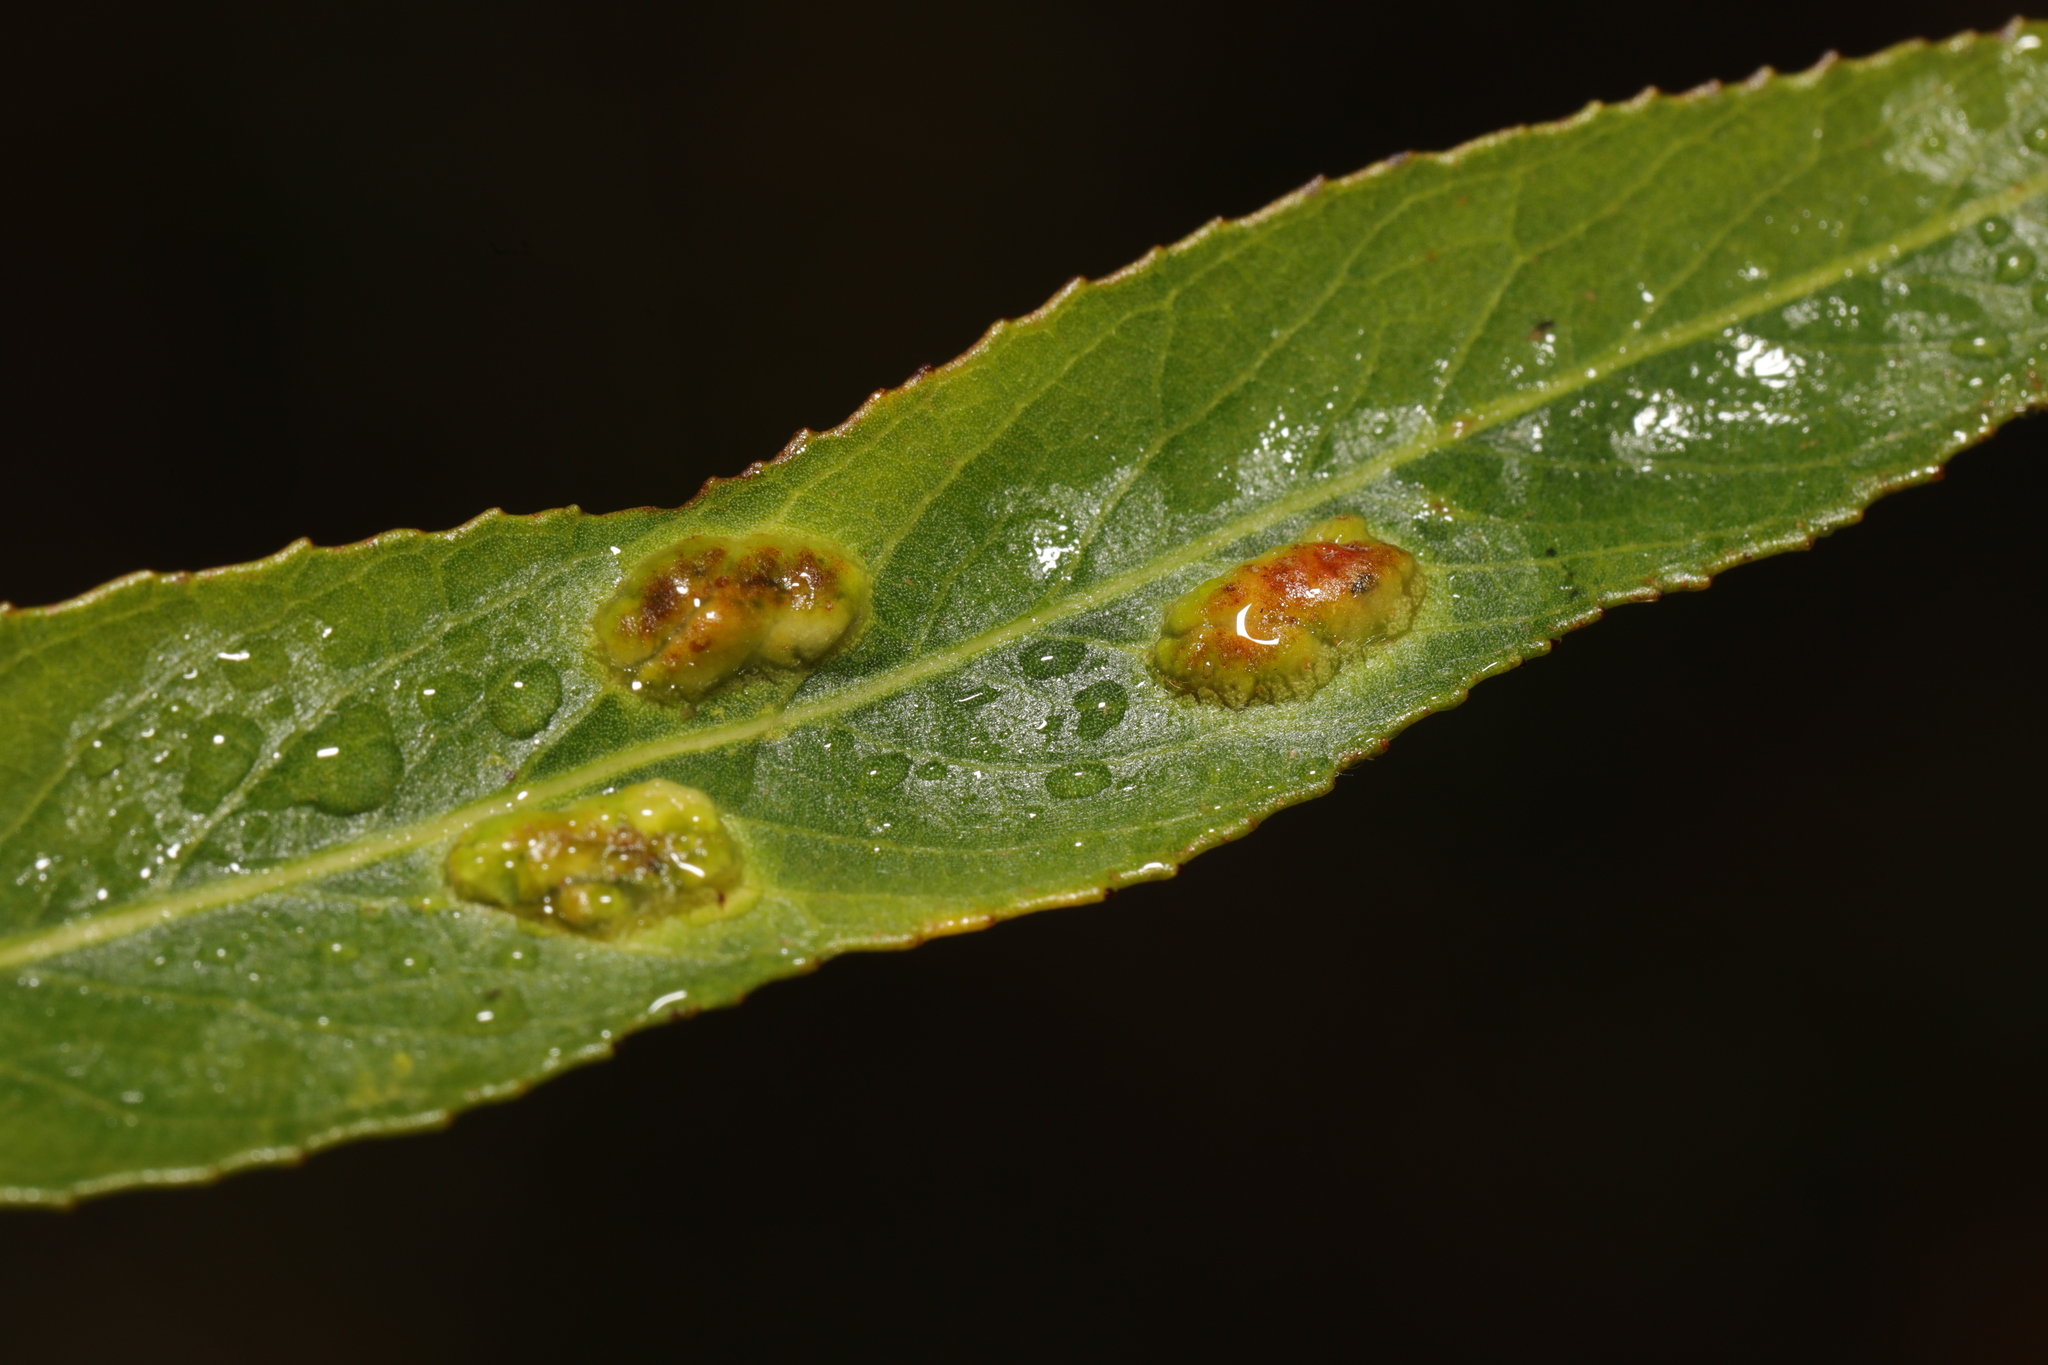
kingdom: Animalia
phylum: Arthropoda
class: Insecta
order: Hymenoptera
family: Tenthredinidae
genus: Pontania
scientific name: Pontania proxima
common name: Common sawfly
